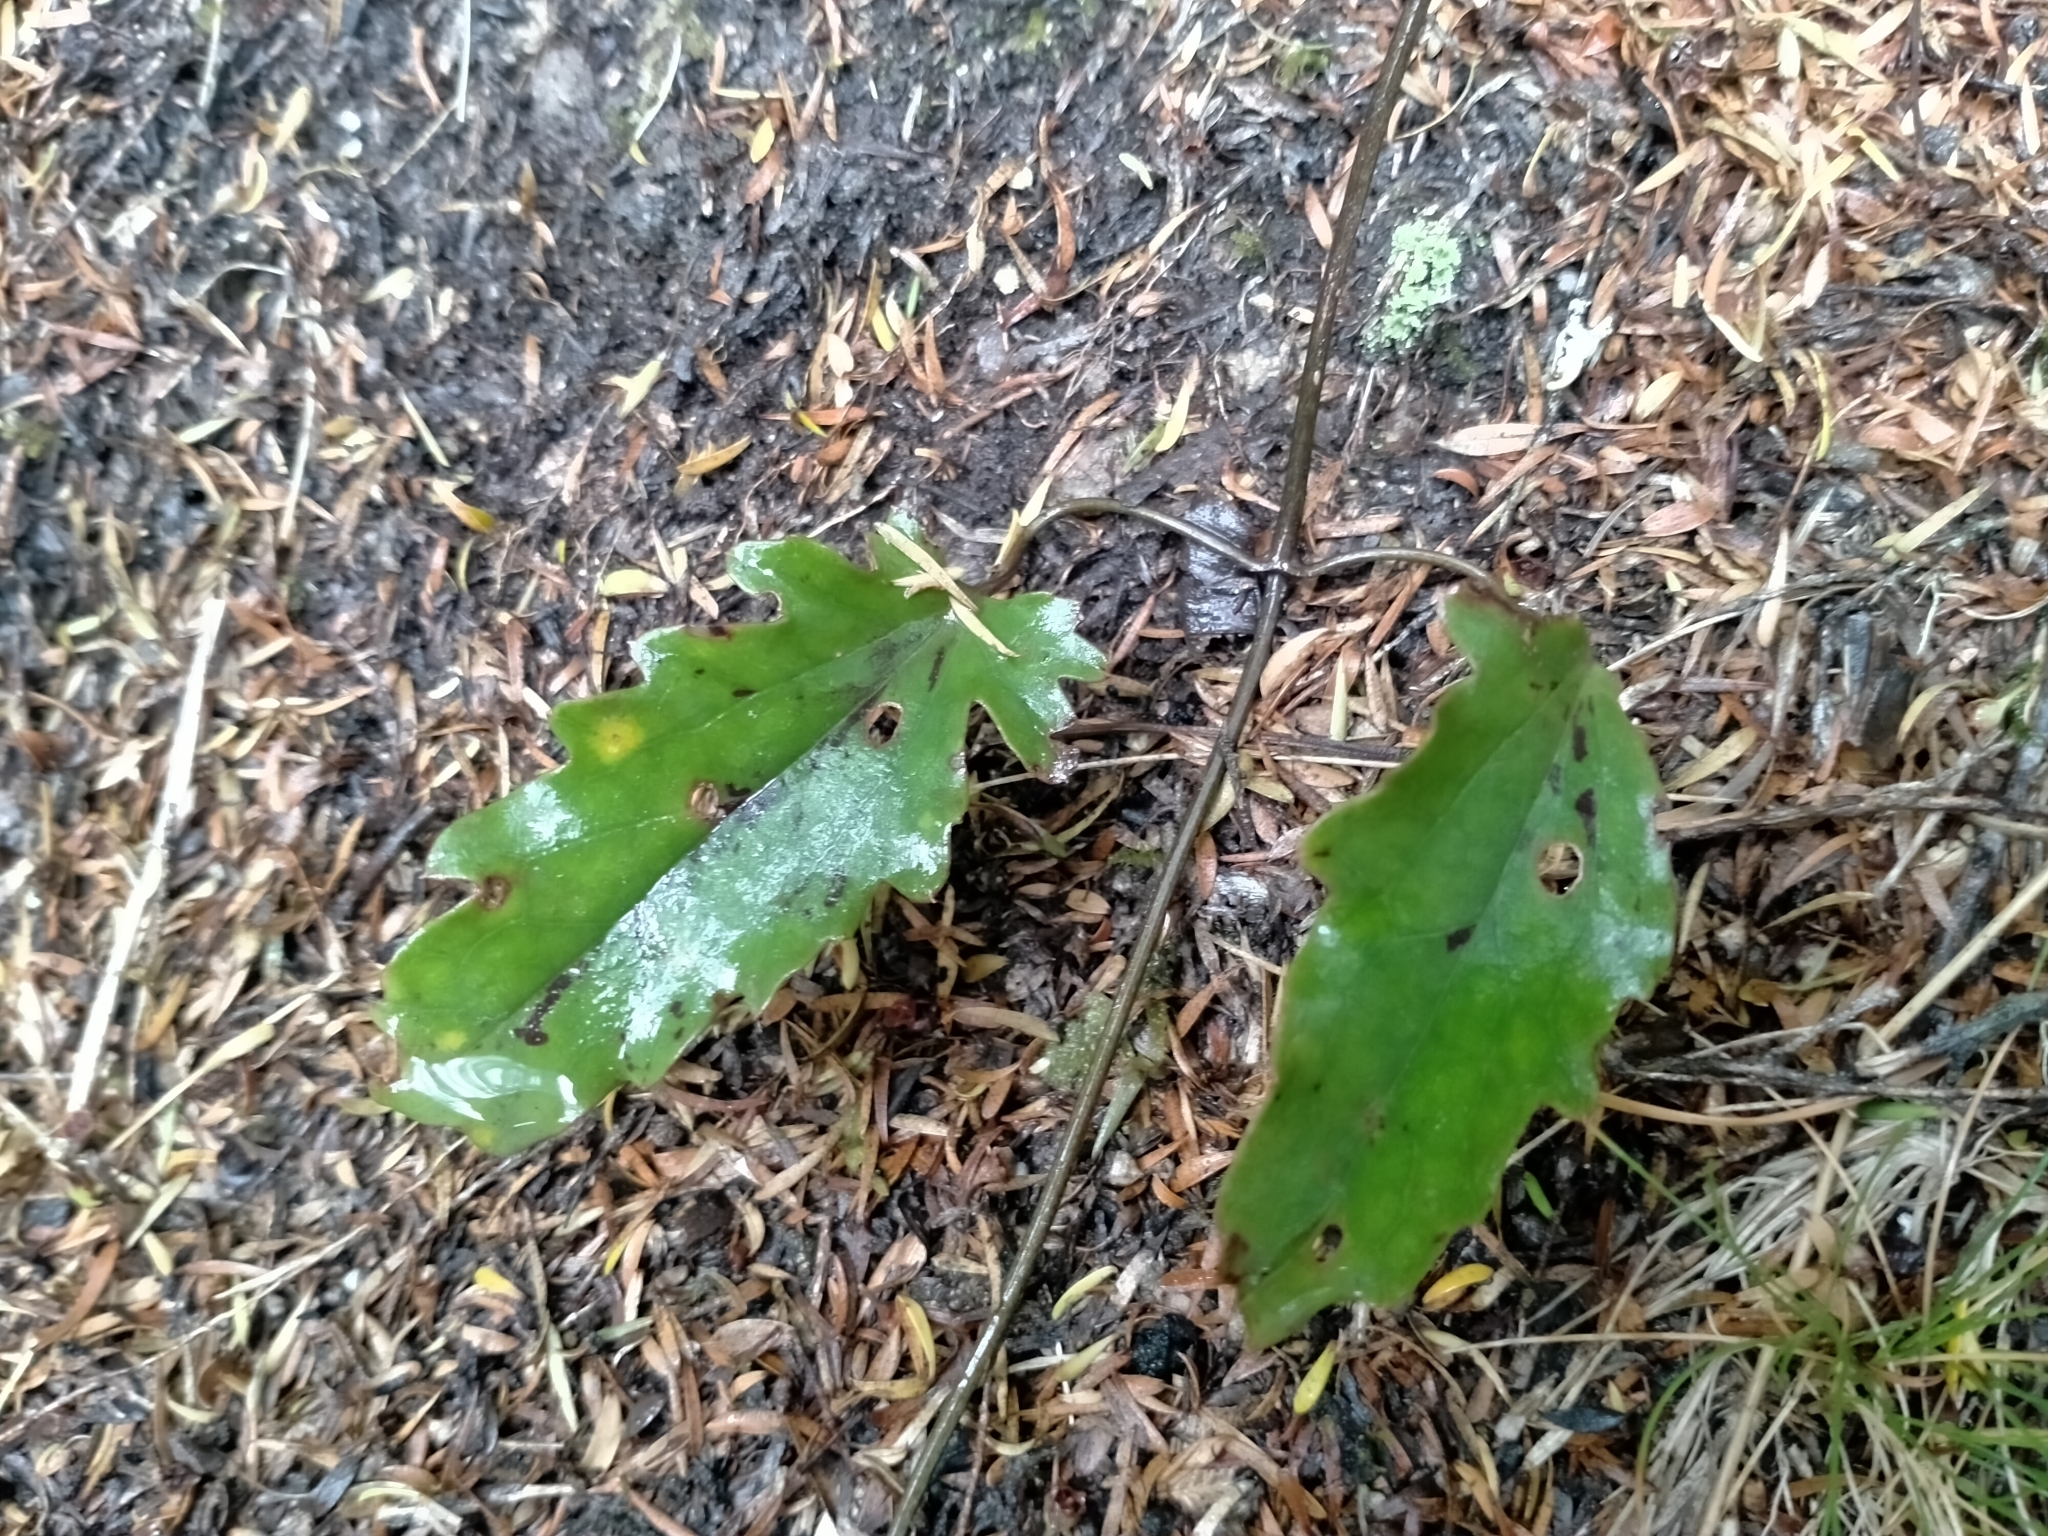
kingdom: Plantae
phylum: Tracheophyta
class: Magnoliopsida
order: Ranunculales
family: Ranunculaceae
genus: Clematis
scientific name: Clematis paniculata
